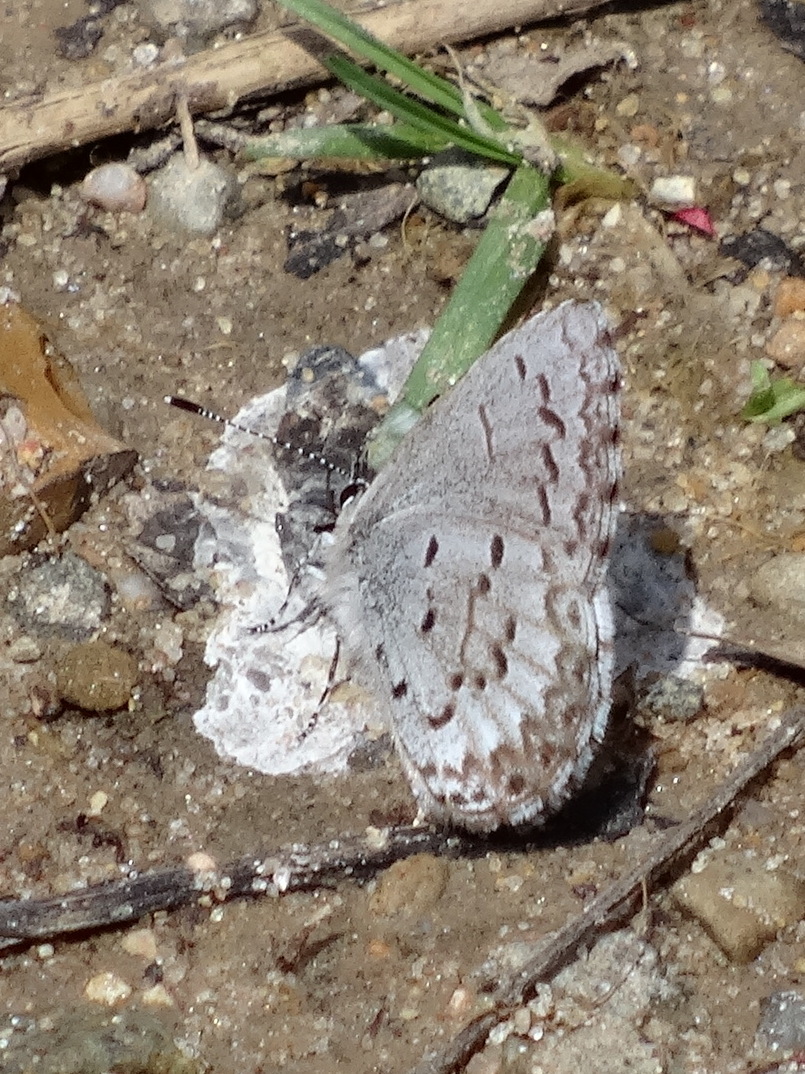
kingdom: Animalia
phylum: Arthropoda
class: Insecta
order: Lepidoptera
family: Lycaenidae
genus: Celastrina
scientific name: Celastrina ladon
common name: Spring azure
